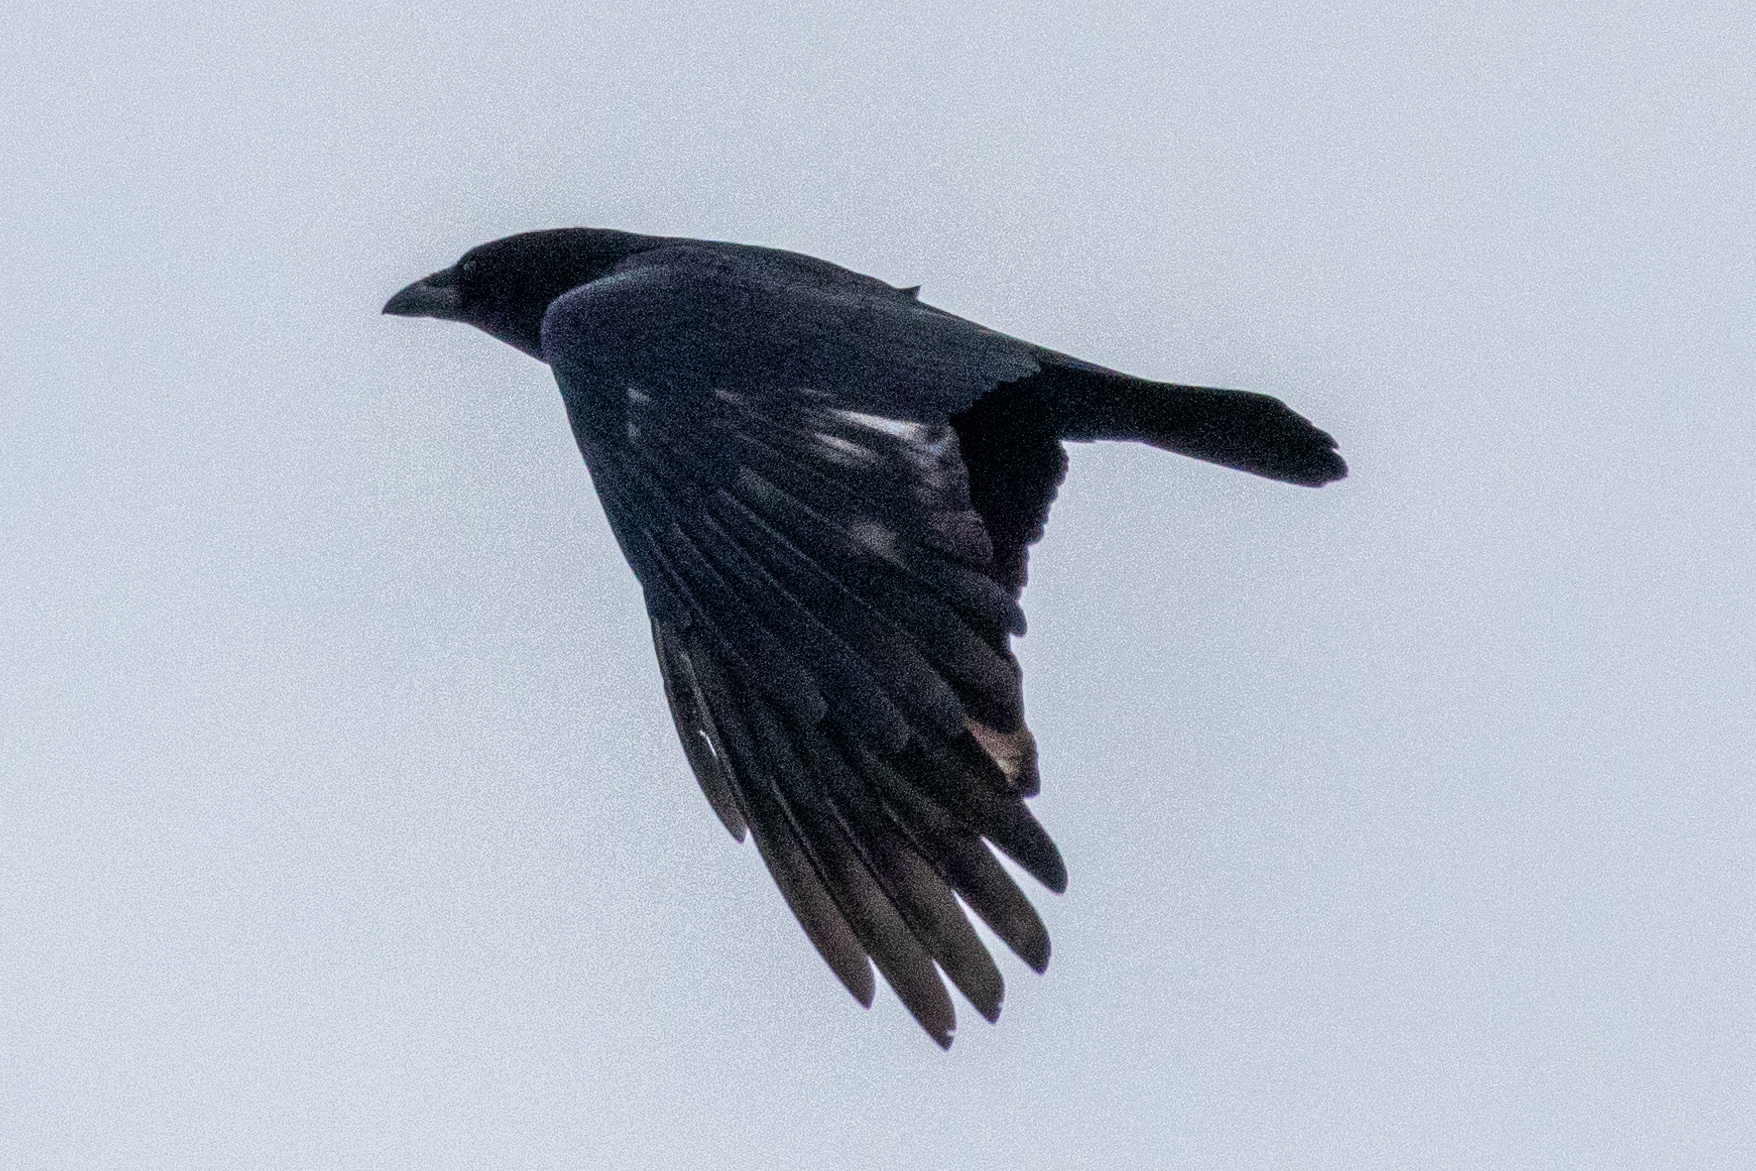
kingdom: Animalia
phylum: Chordata
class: Aves
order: Passeriformes
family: Corvidae
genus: Corvus
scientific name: Corvus corone
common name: Carrion crow
